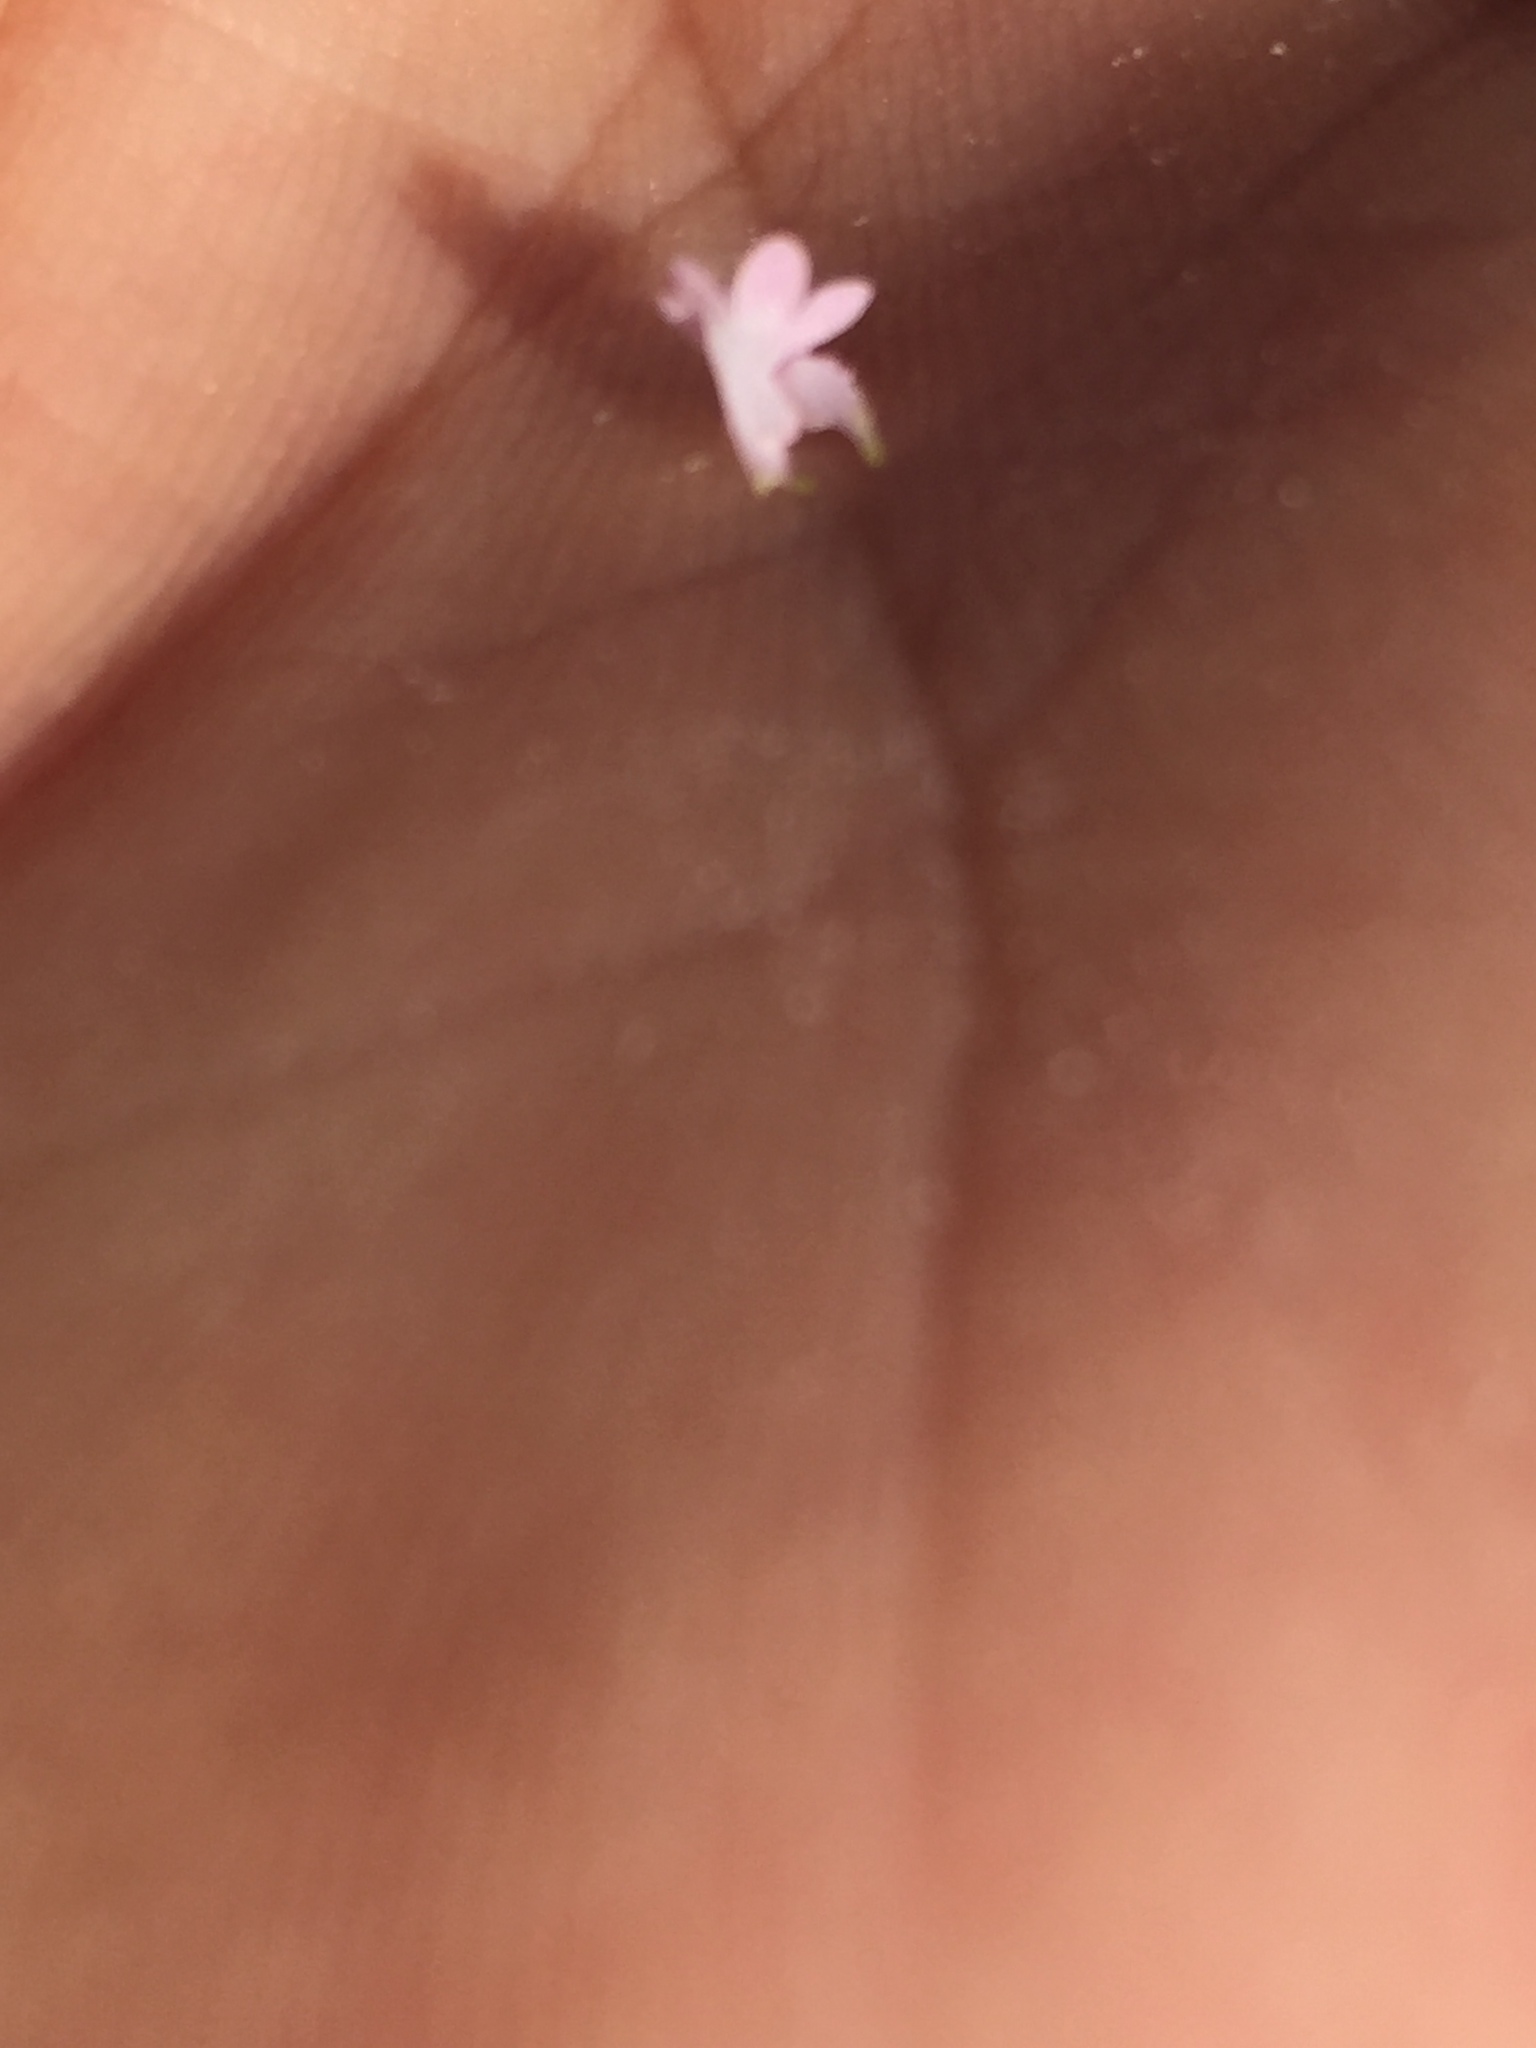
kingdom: Plantae
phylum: Tracheophyta
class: Magnoliopsida
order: Dipsacales
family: Caprifoliaceae
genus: Plectritis
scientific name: Plectritis macroptera
